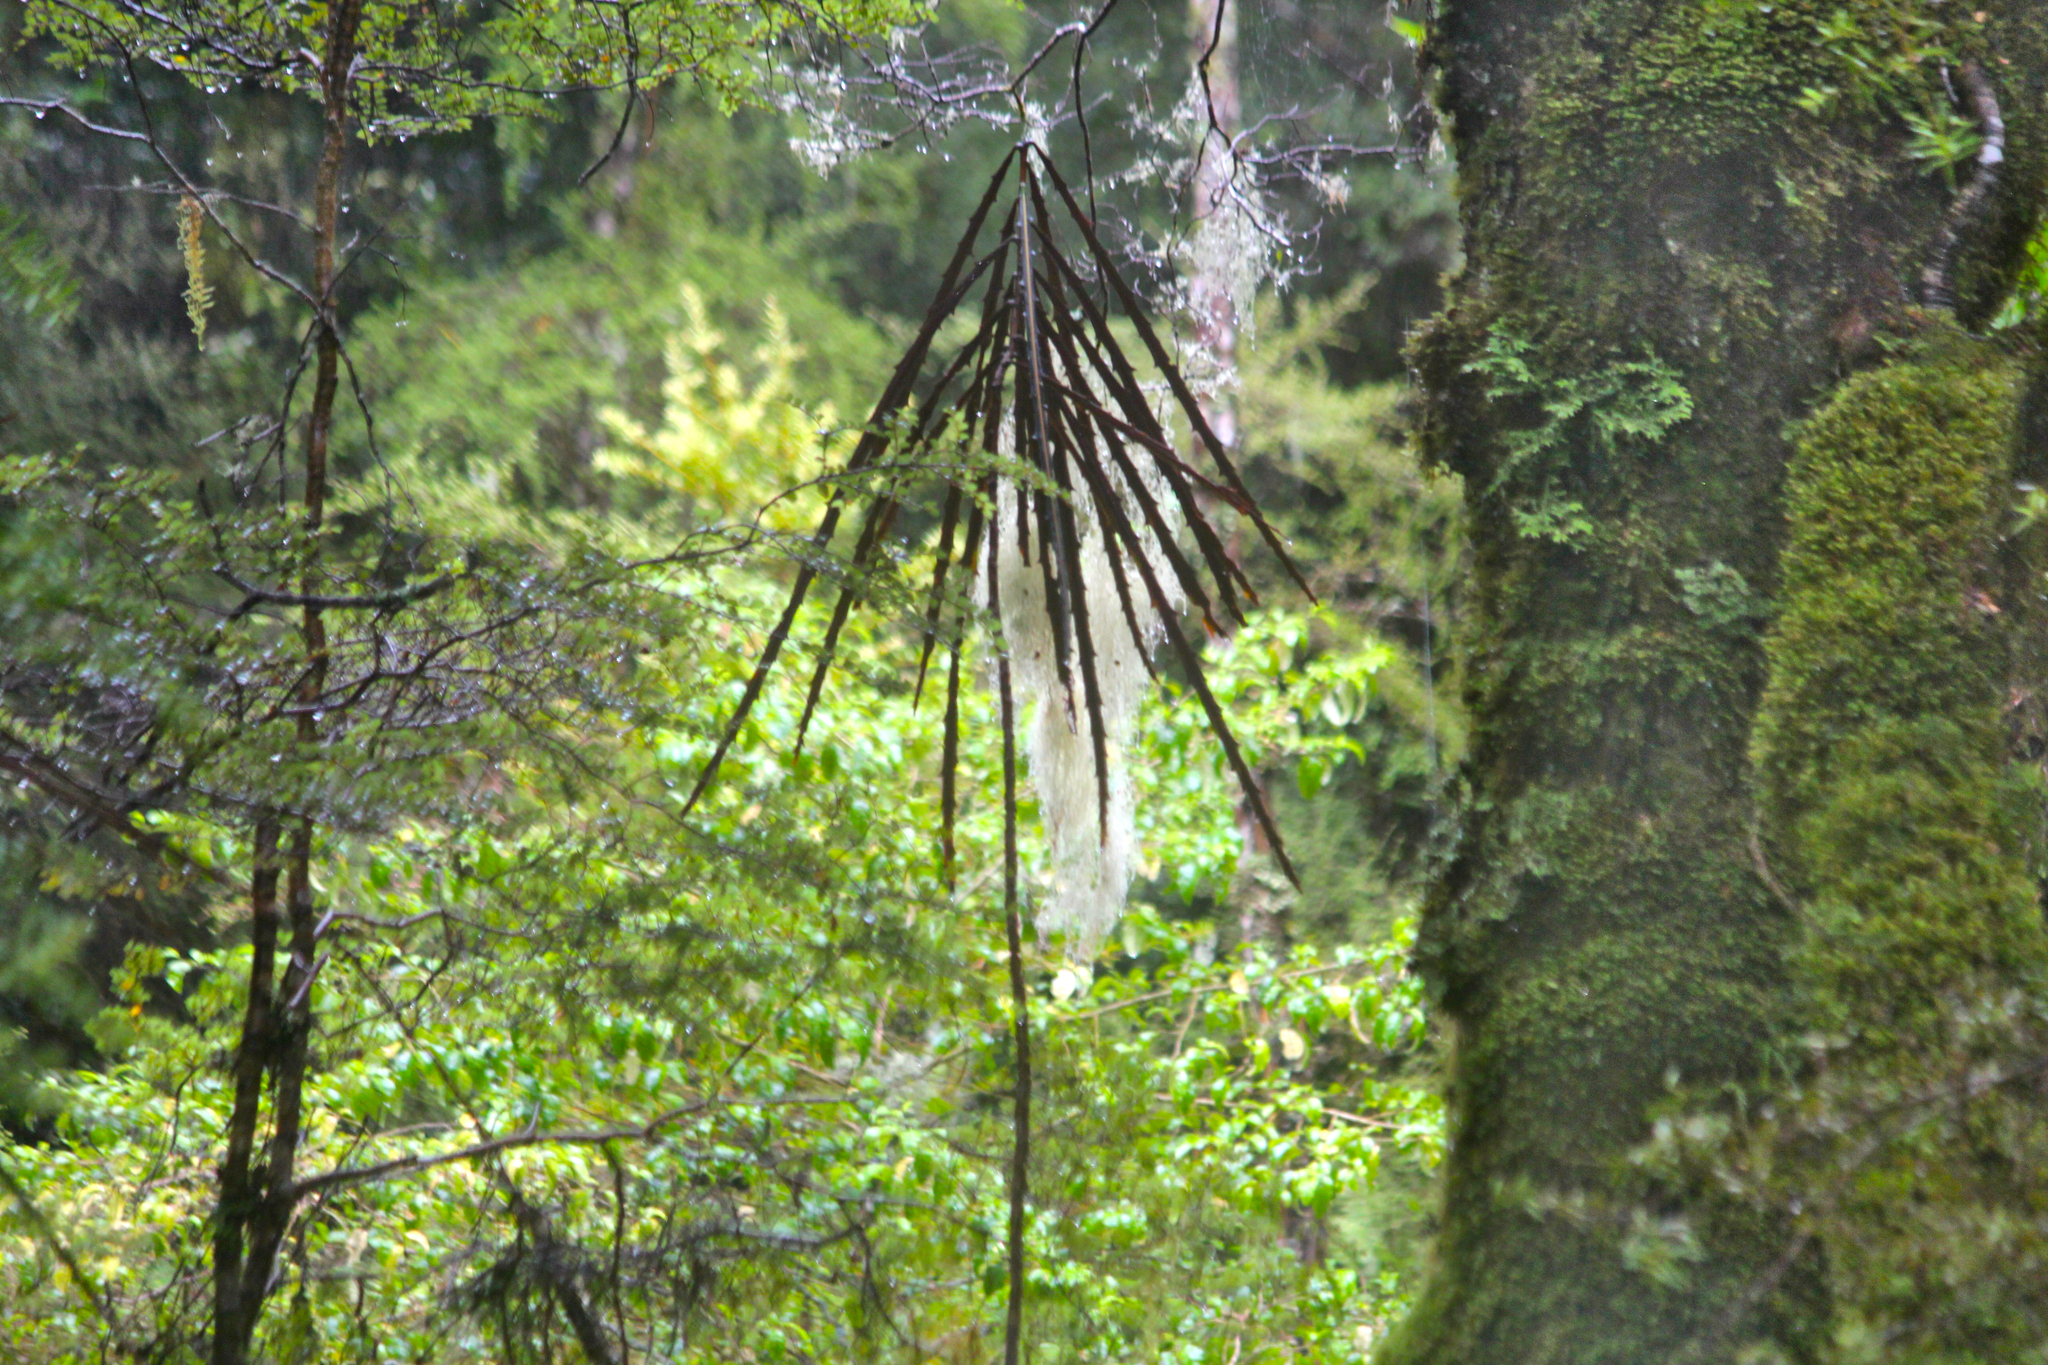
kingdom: Plantae
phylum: Tracheophyta
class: Magnoliopsida
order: Apiales
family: Araliaceae
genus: Pseudopanax
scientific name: Pseudopanax crassifolius
